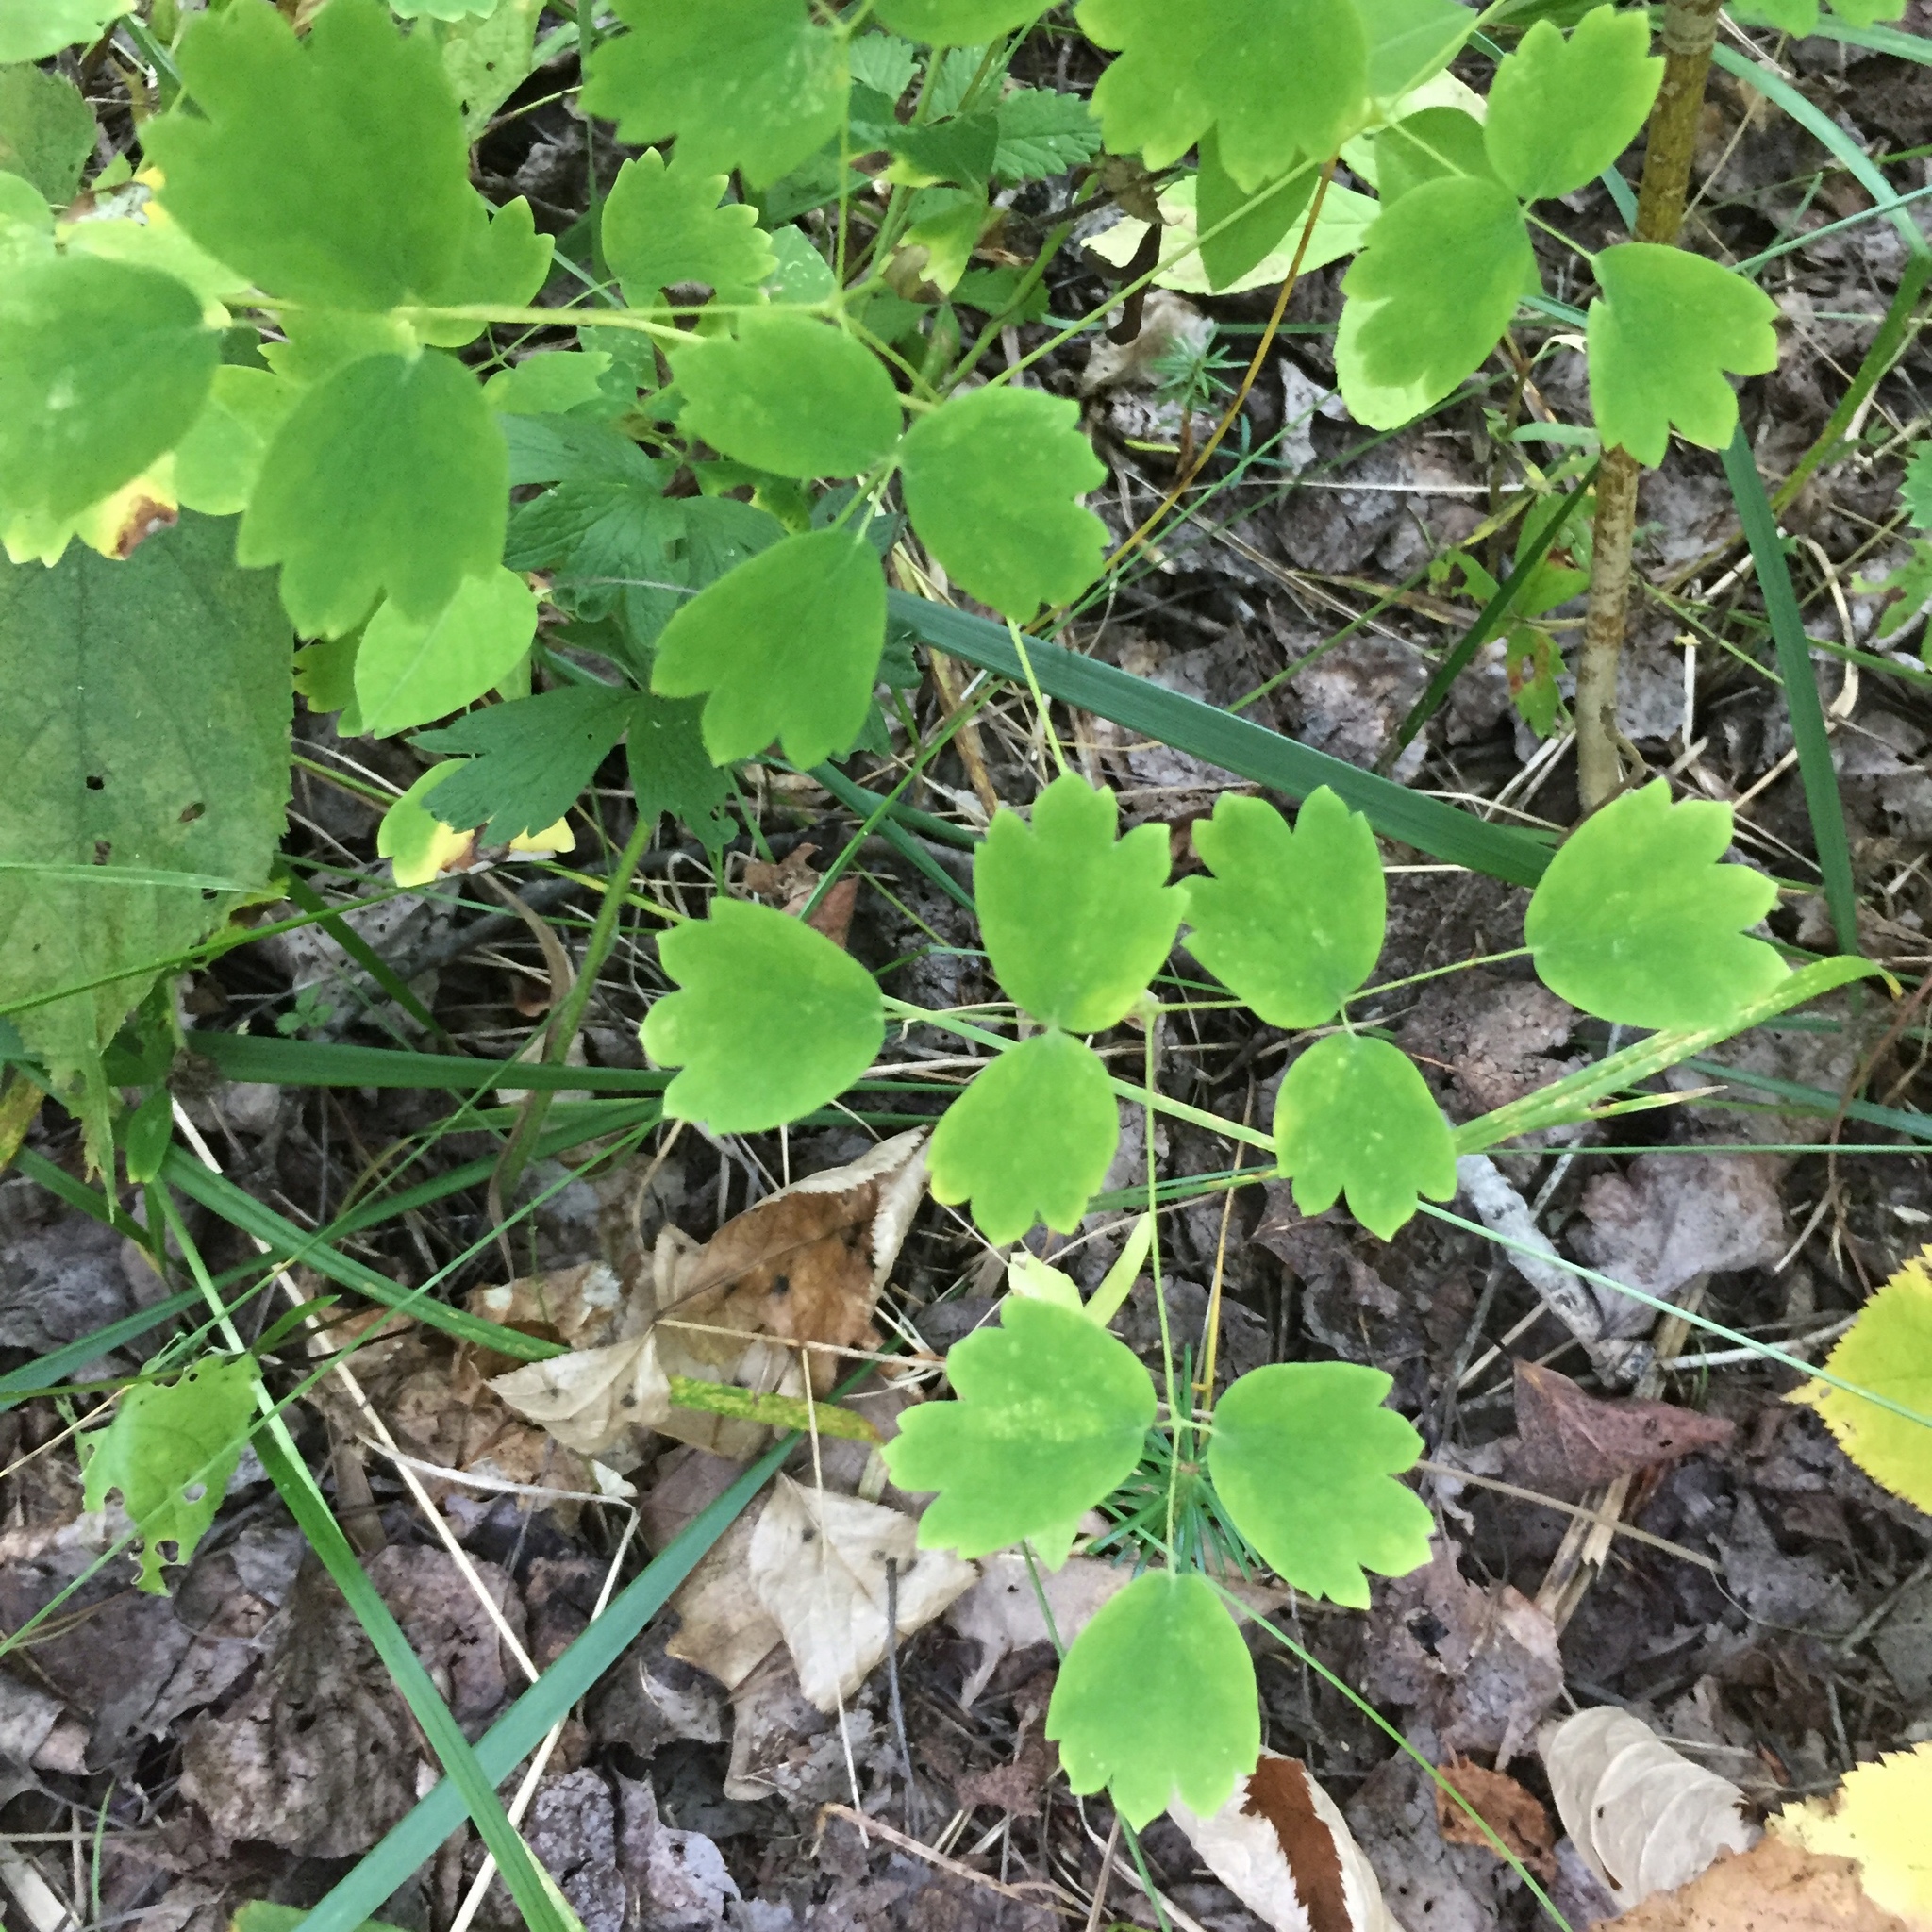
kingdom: Plantae
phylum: Tracheophyta
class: Magnoliopsida
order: Ranunculales
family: Ranunculaceae
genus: Thalictrum
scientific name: Thalictrum venulosum
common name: Early meadow-rue
